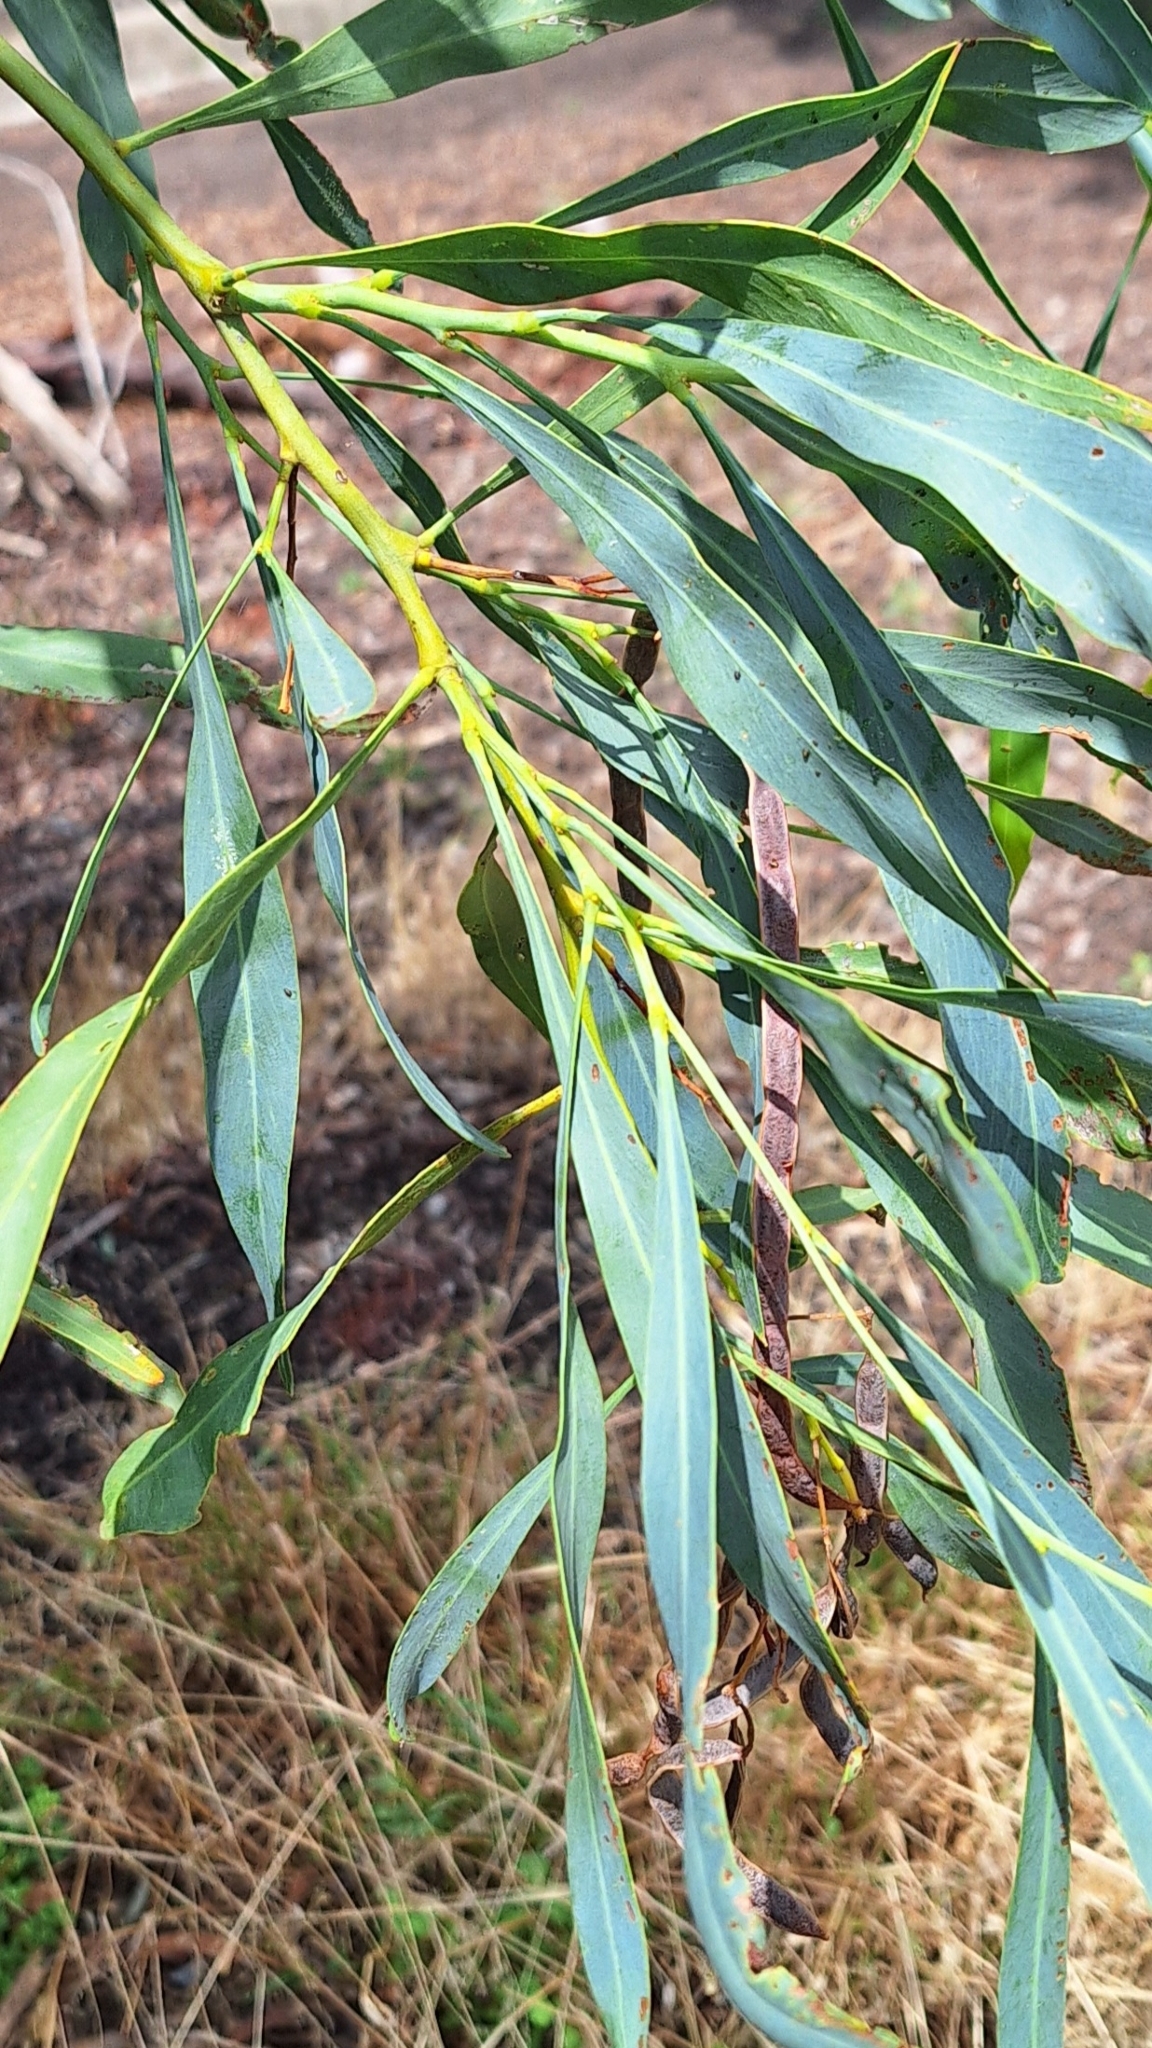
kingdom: Plantae
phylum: Tracheophyta
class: Magnoliopsida
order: Fabales
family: Fabaceae
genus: Acacia
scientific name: Acacia saligna
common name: Orange wattle
